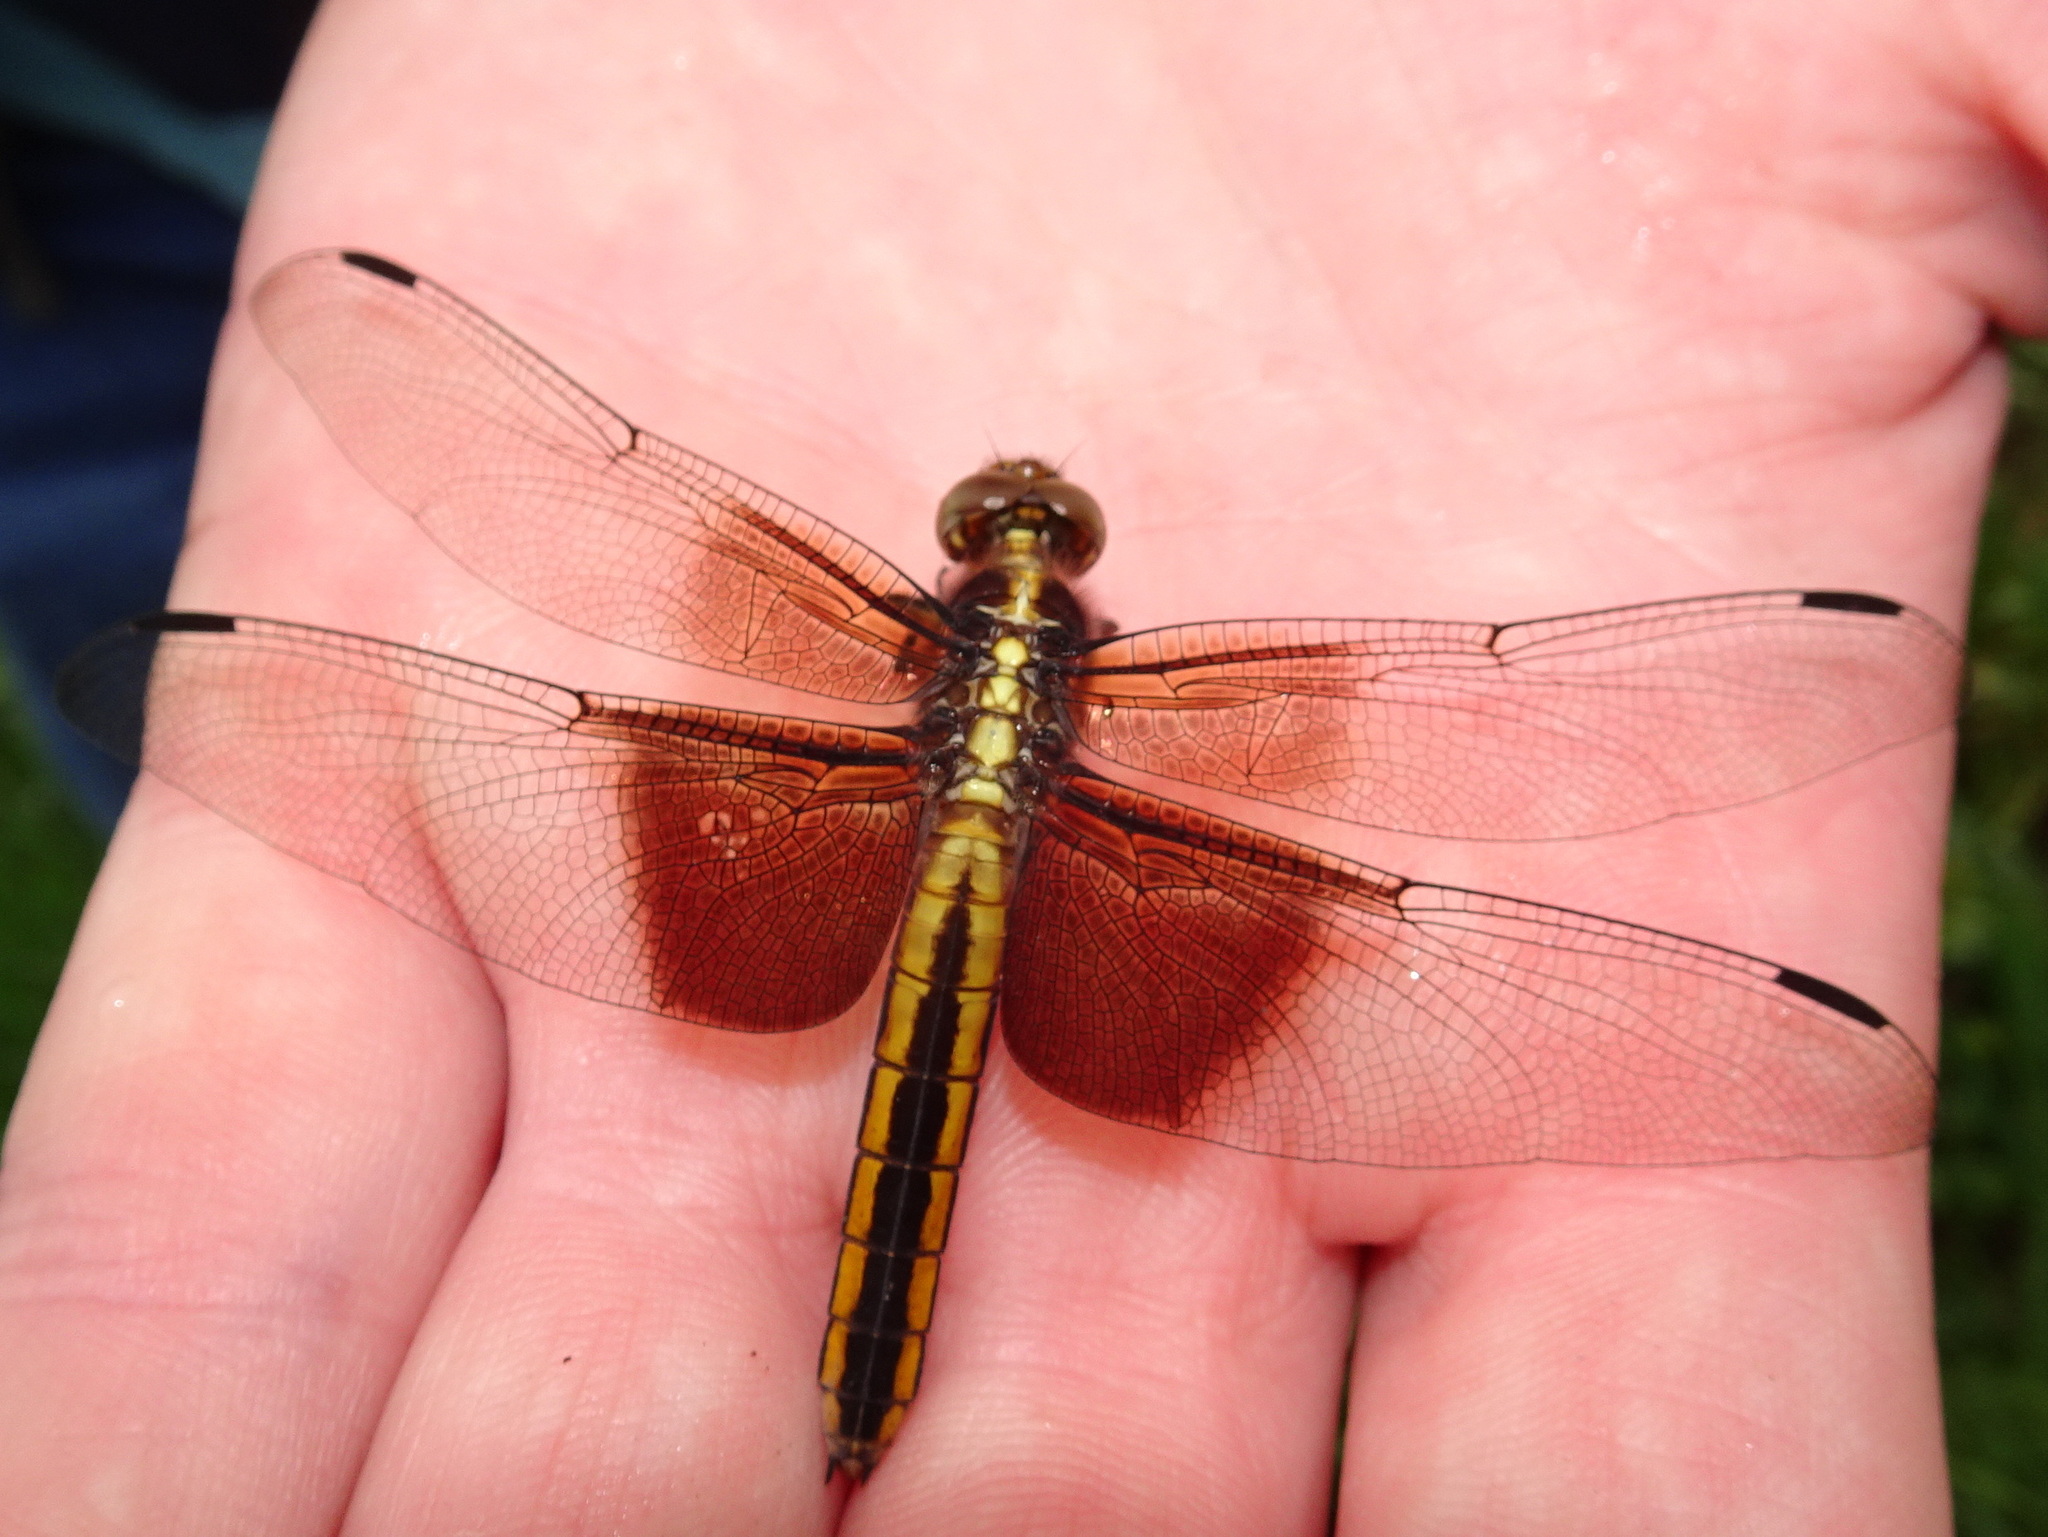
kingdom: Animalia
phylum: Arthropoda
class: Insecta
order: Odonata
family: Libellulidae
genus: Libellula
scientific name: Libellula luctuosa
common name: Widow skimmer
